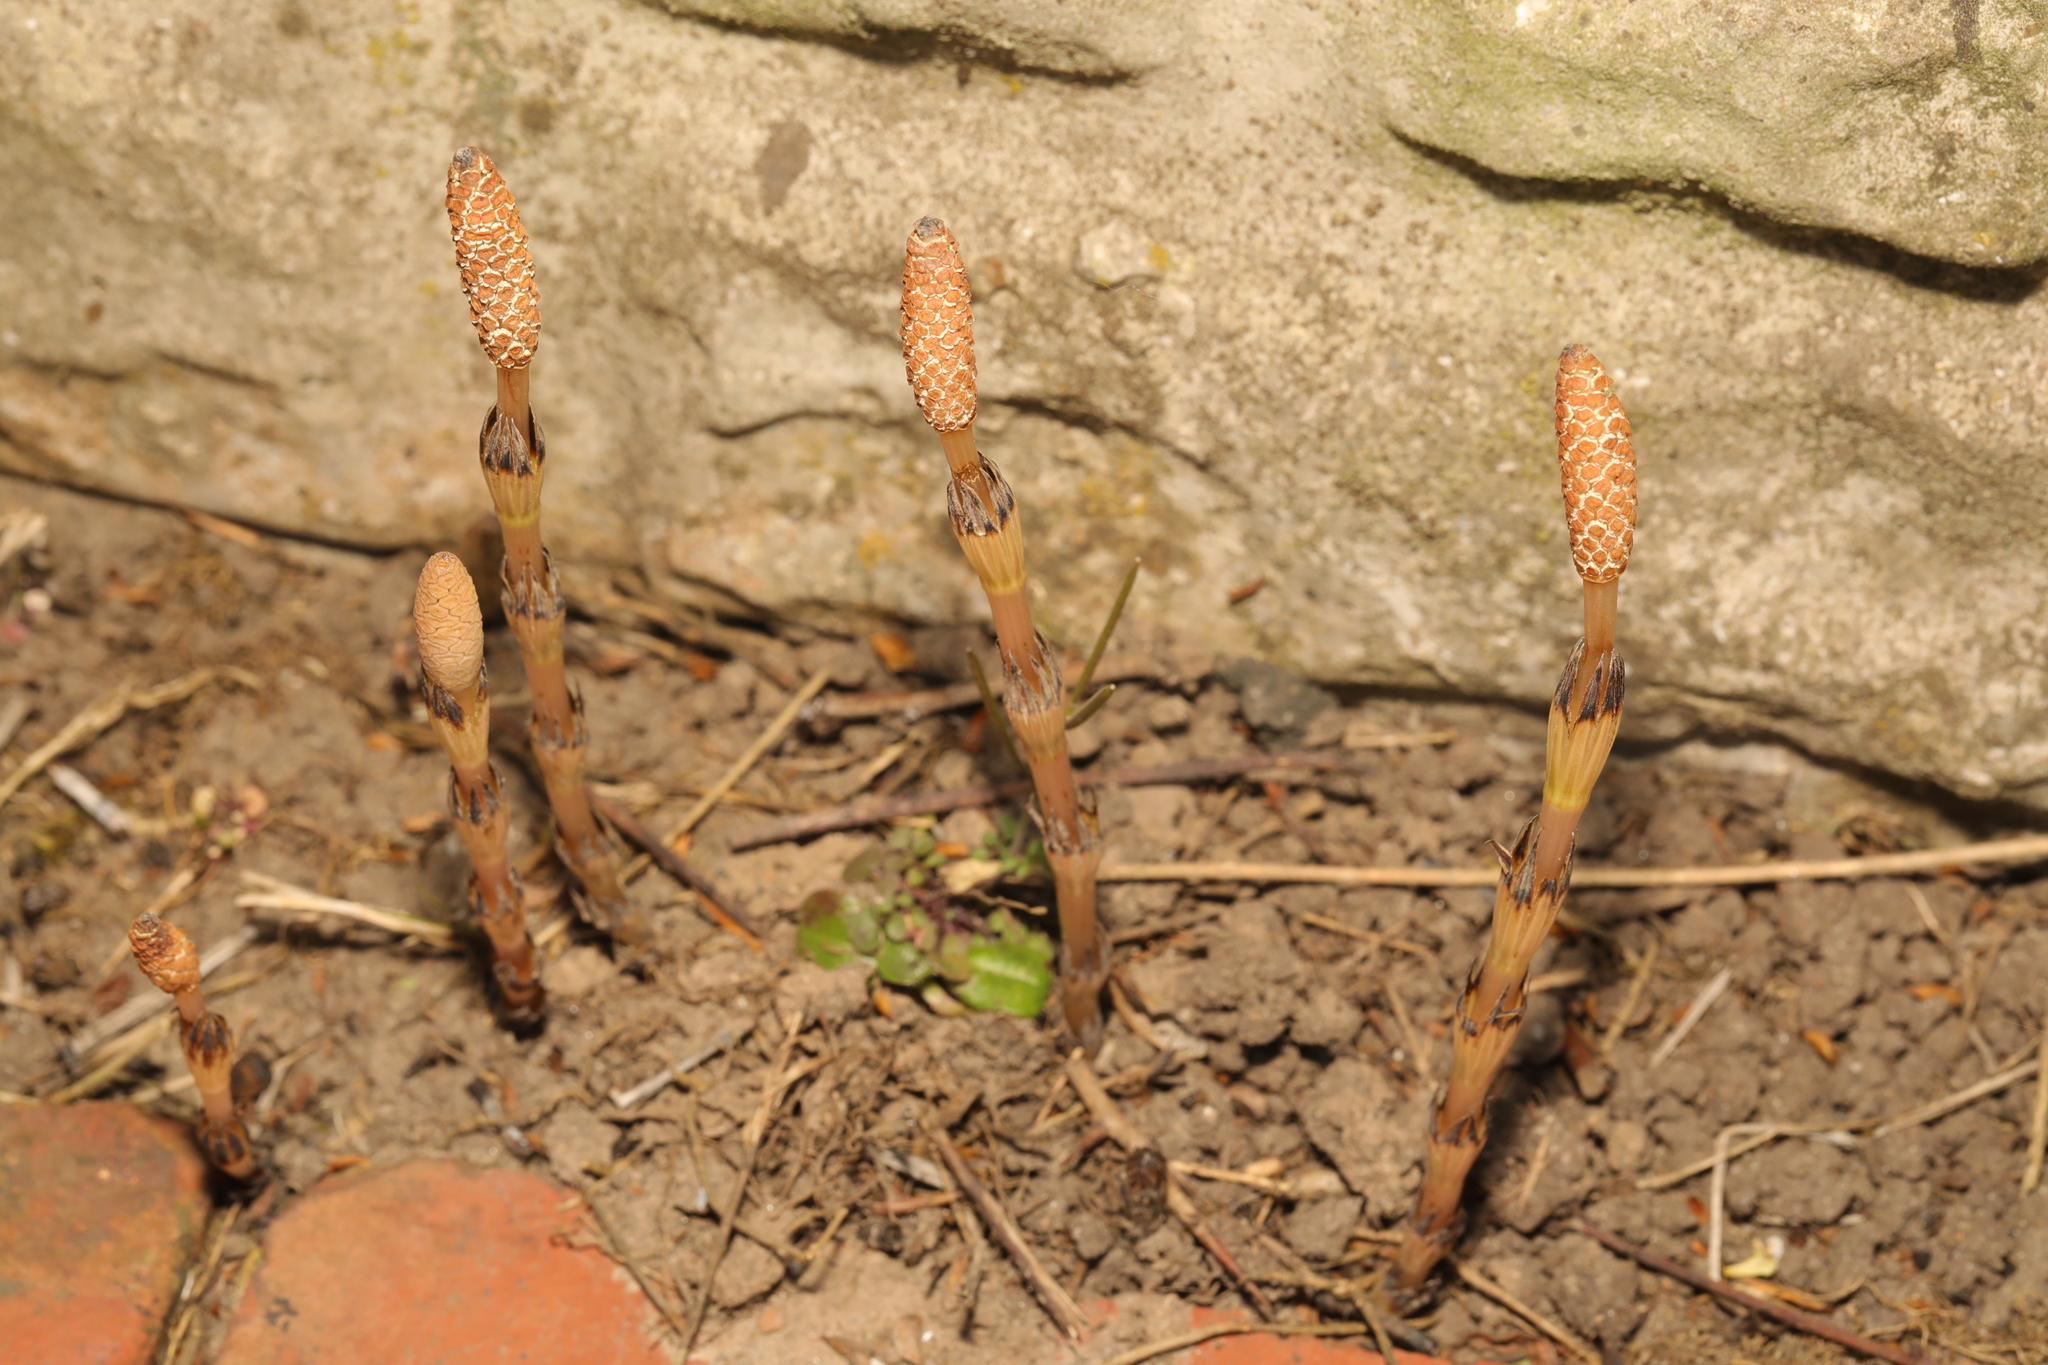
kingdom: Plantae
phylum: Tracheophyta
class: Polypodiopsida
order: Equisetales
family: Equisetaceae
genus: Equisetum
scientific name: Equisetum arvense
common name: Field horsetail
